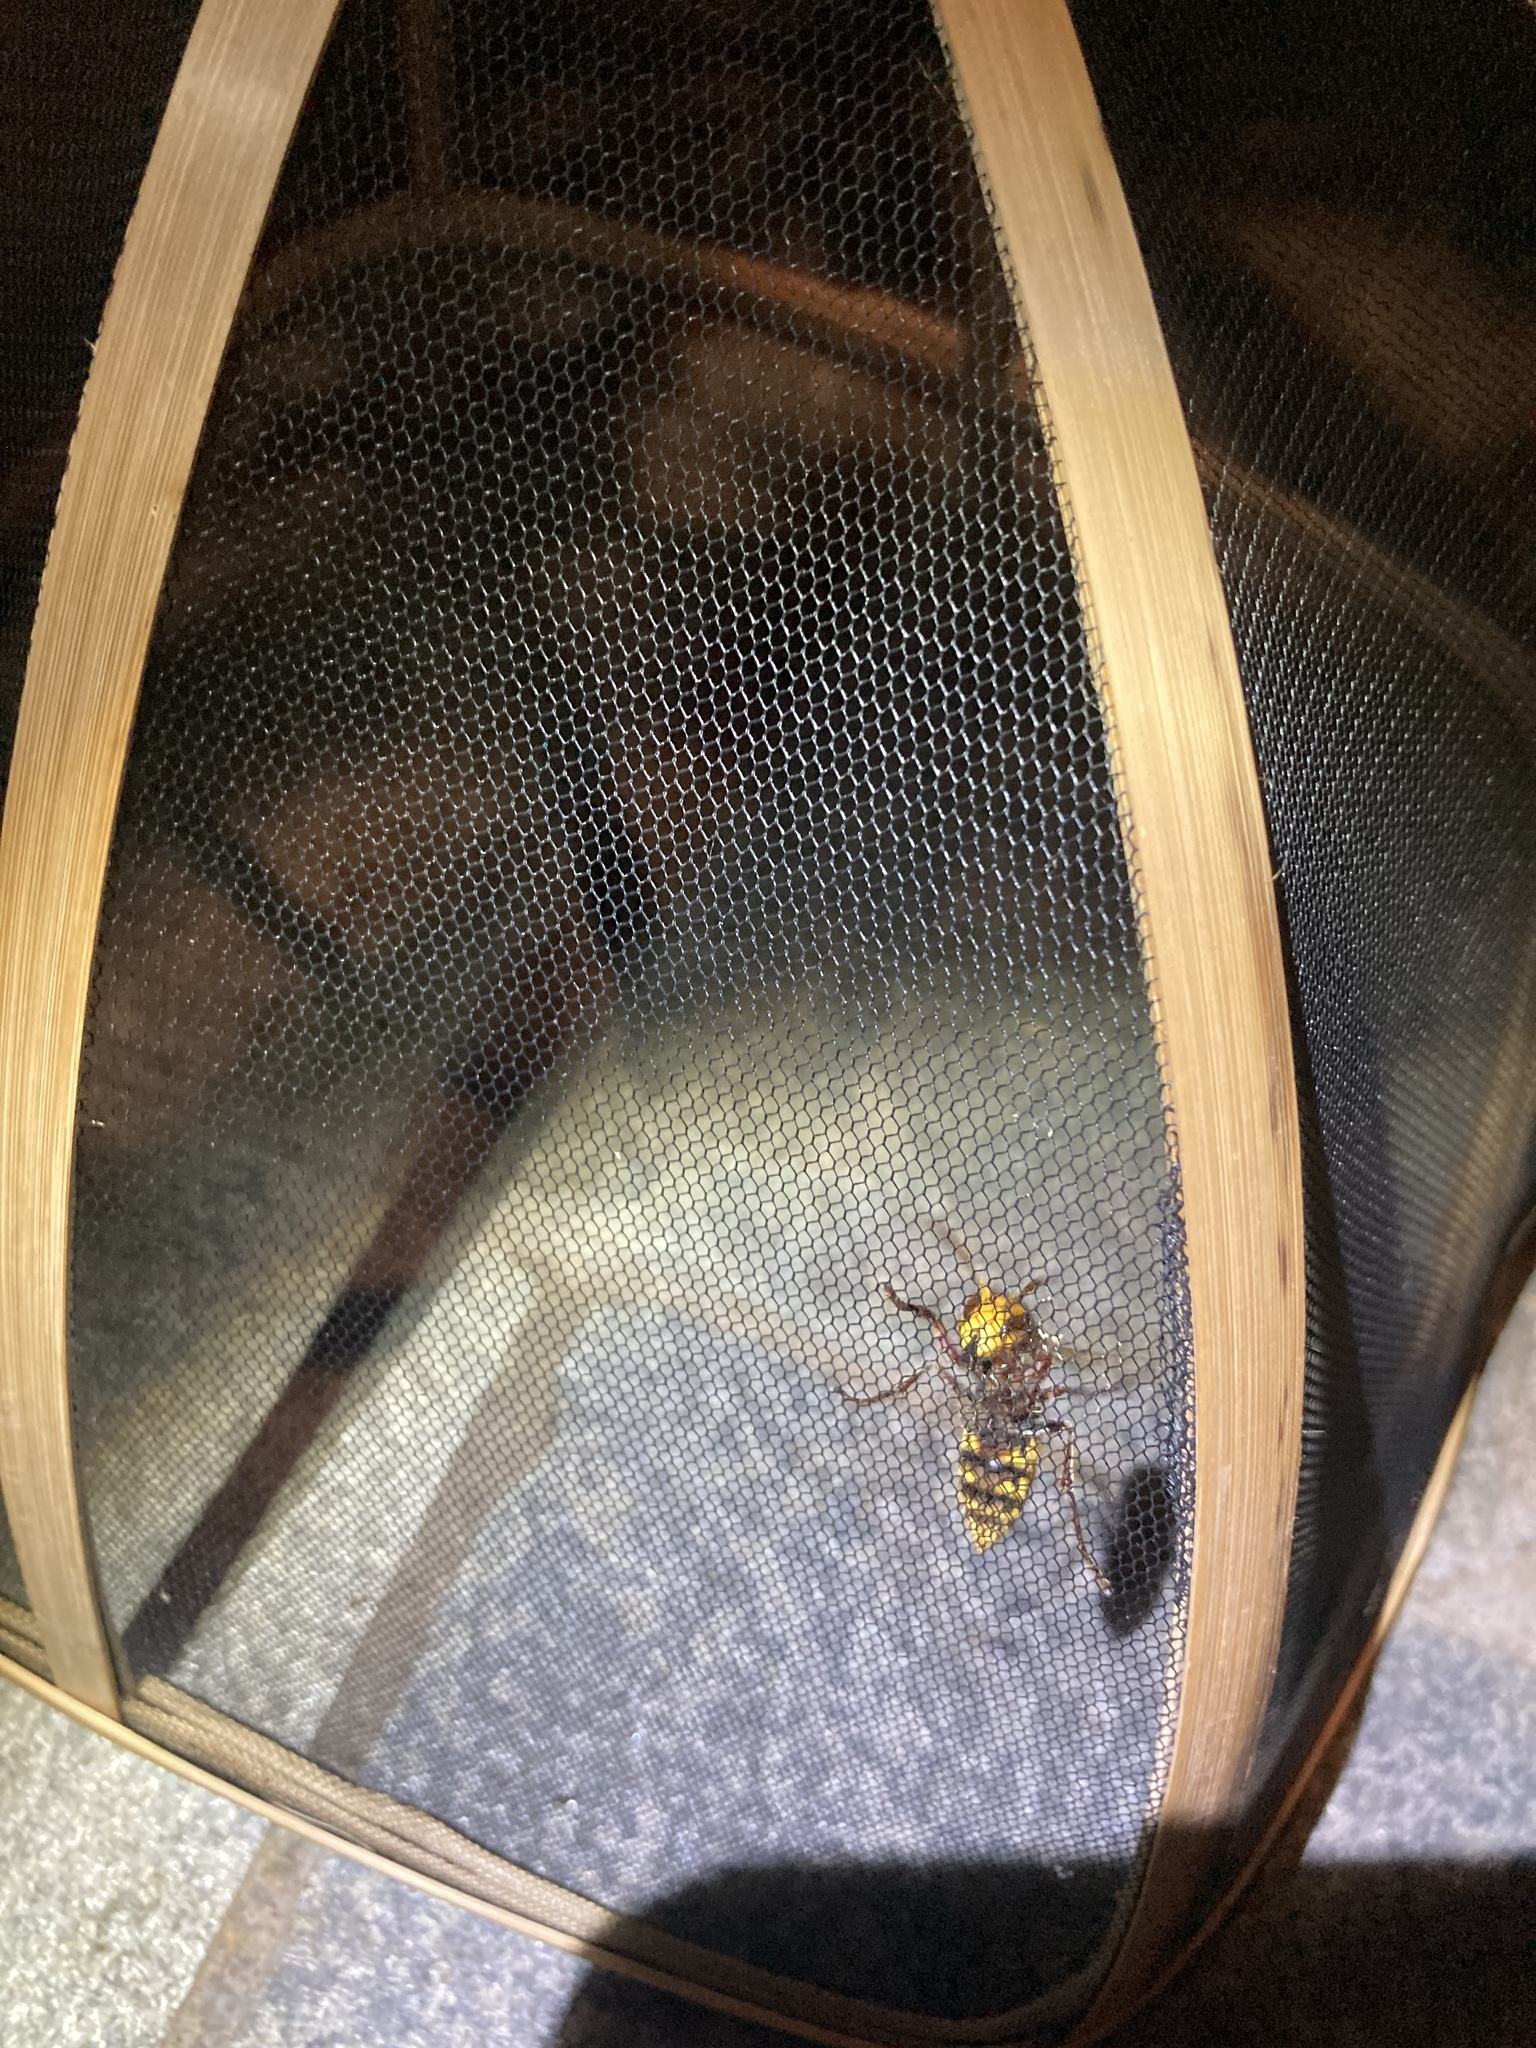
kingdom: Animalia
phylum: Arthropoda
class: Insecta
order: Hymenoptera
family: Vespidae
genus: Vespa
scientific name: Vespa crabro
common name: Hornet
